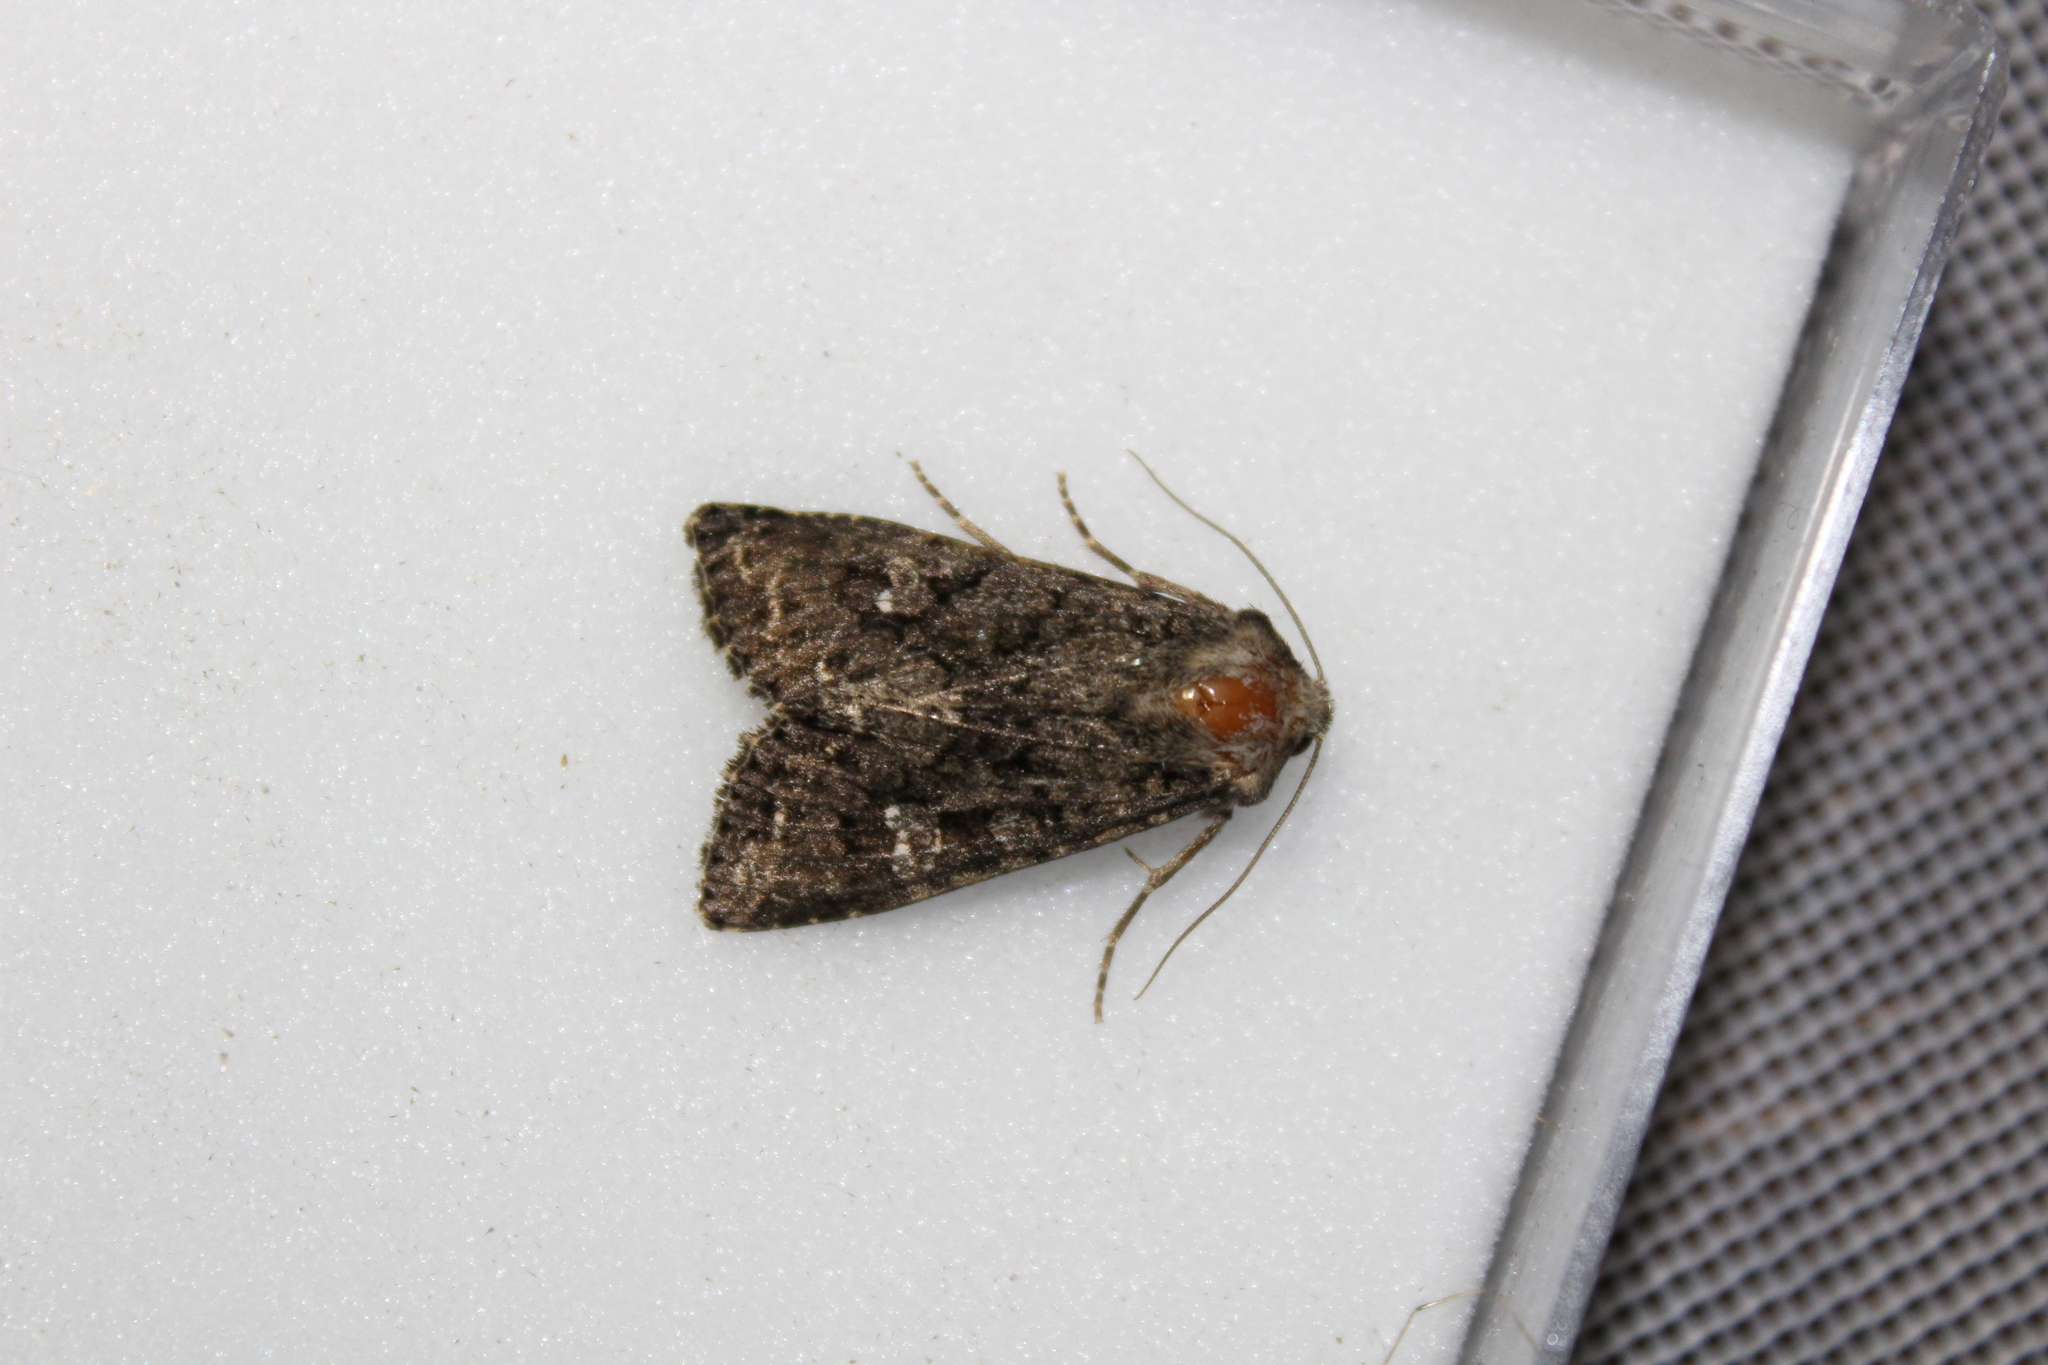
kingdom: Animalia
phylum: Arthropoda
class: Insecta
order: Lepidoptera
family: Noctuidae
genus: Mamestra
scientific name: Mamestra brassicae
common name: Cabbage moth
